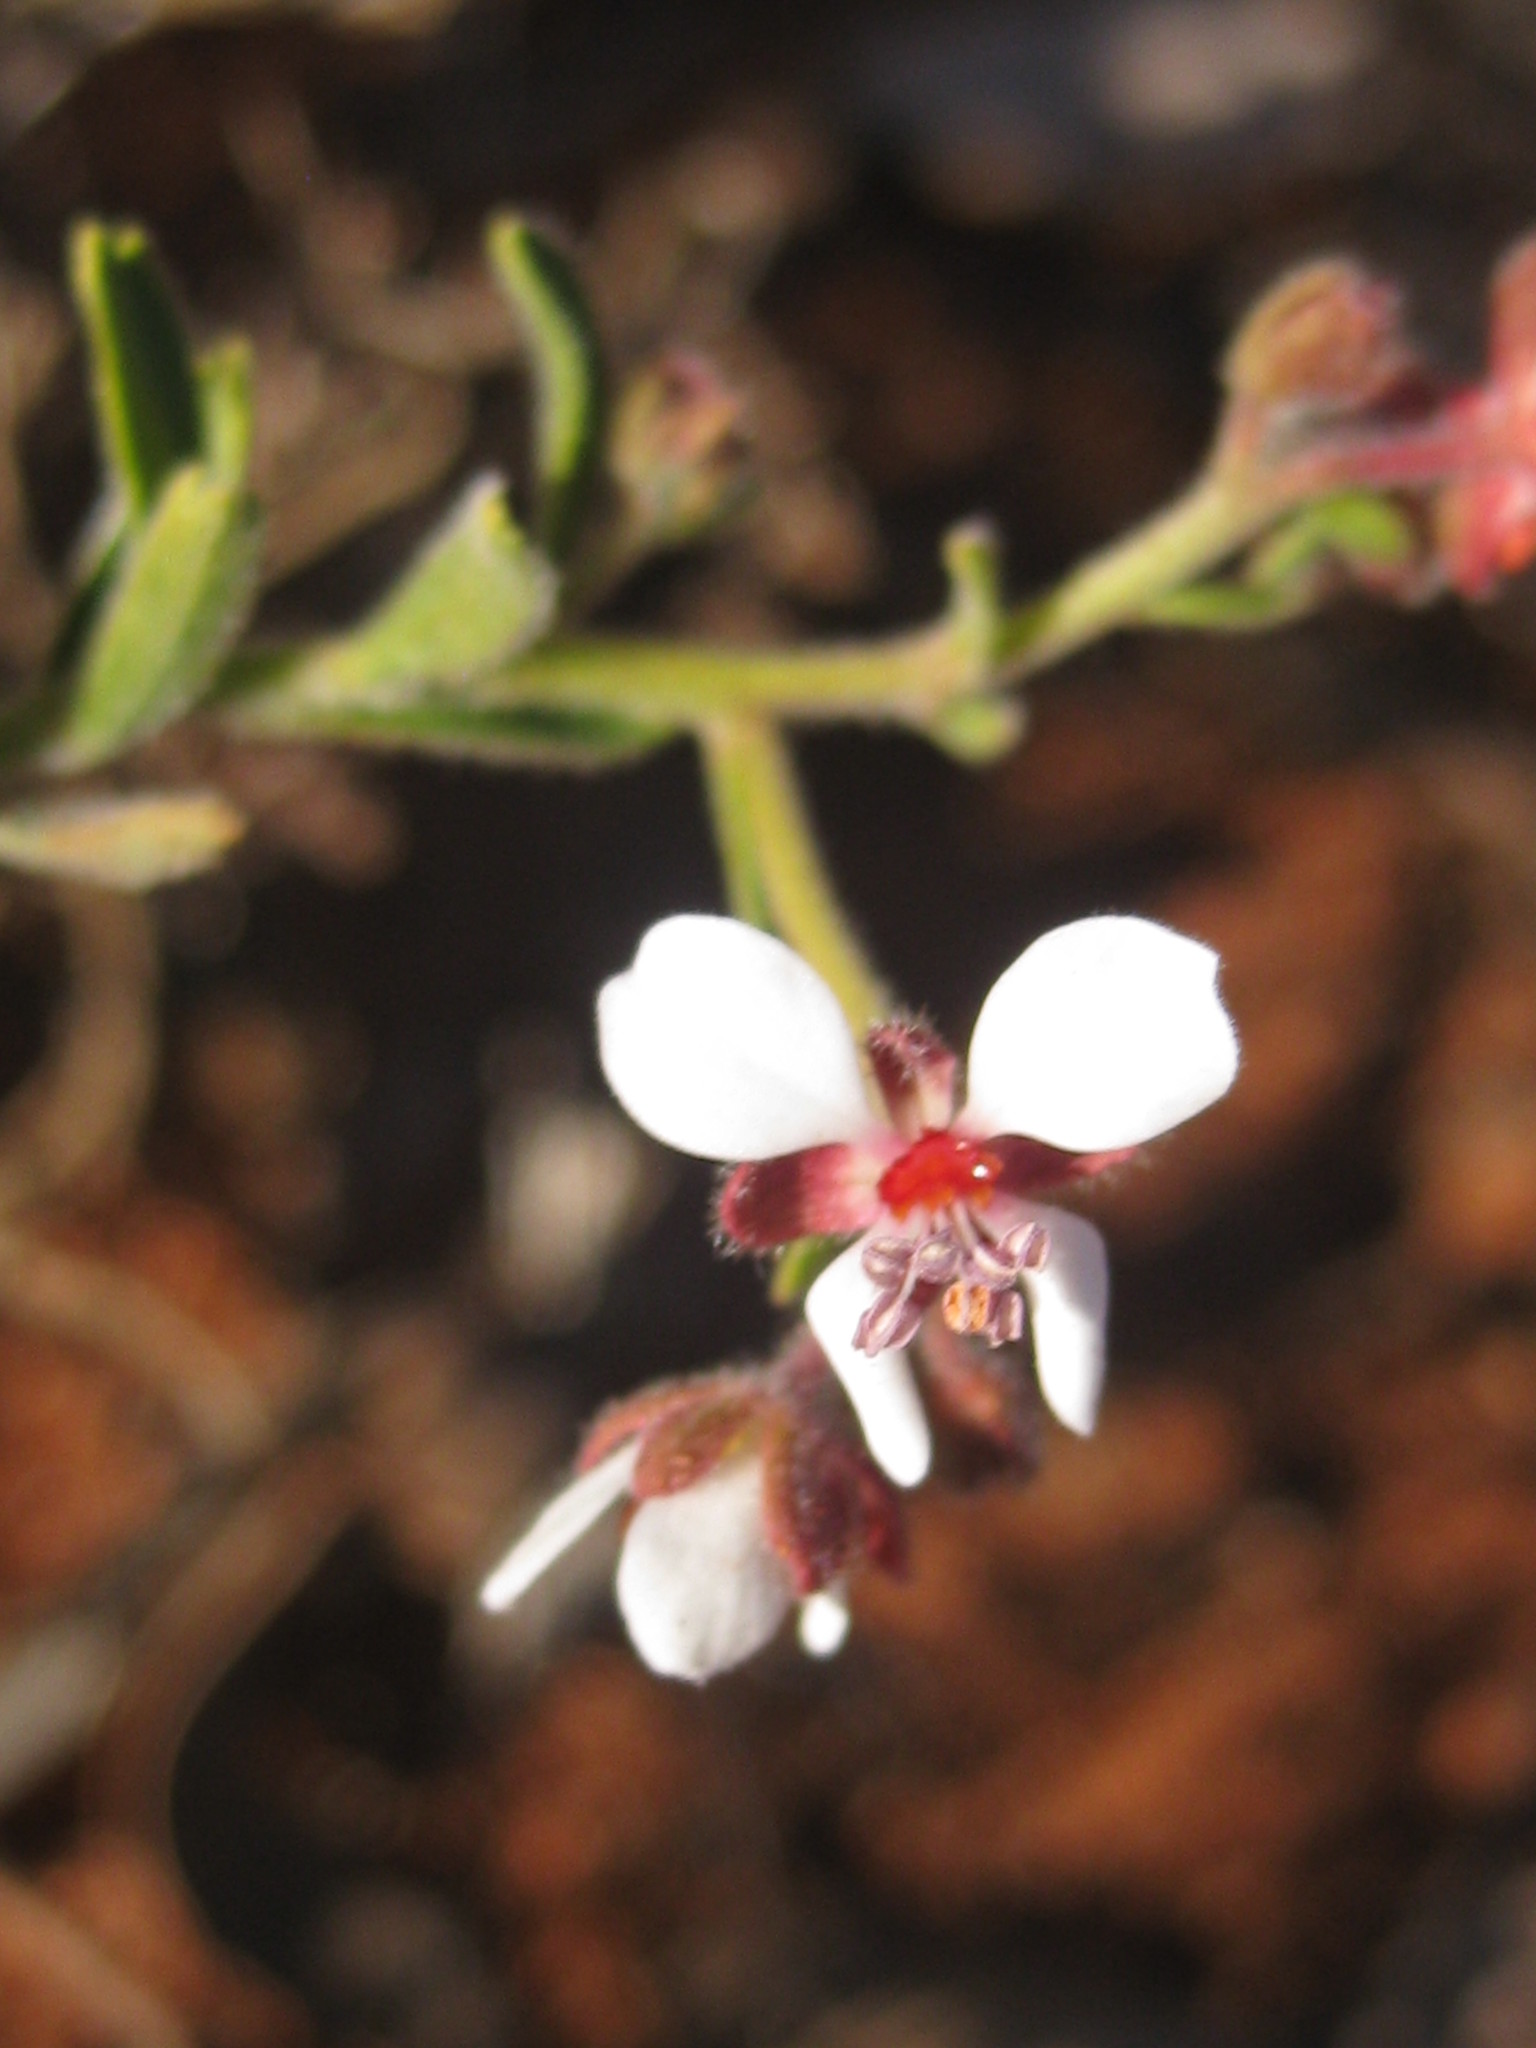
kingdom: Plantae
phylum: Tracheophyta
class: Magnoliopsida
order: Sapindales
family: Sapindaceae
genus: Diplopeltis
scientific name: Diplopeltis stuartii
